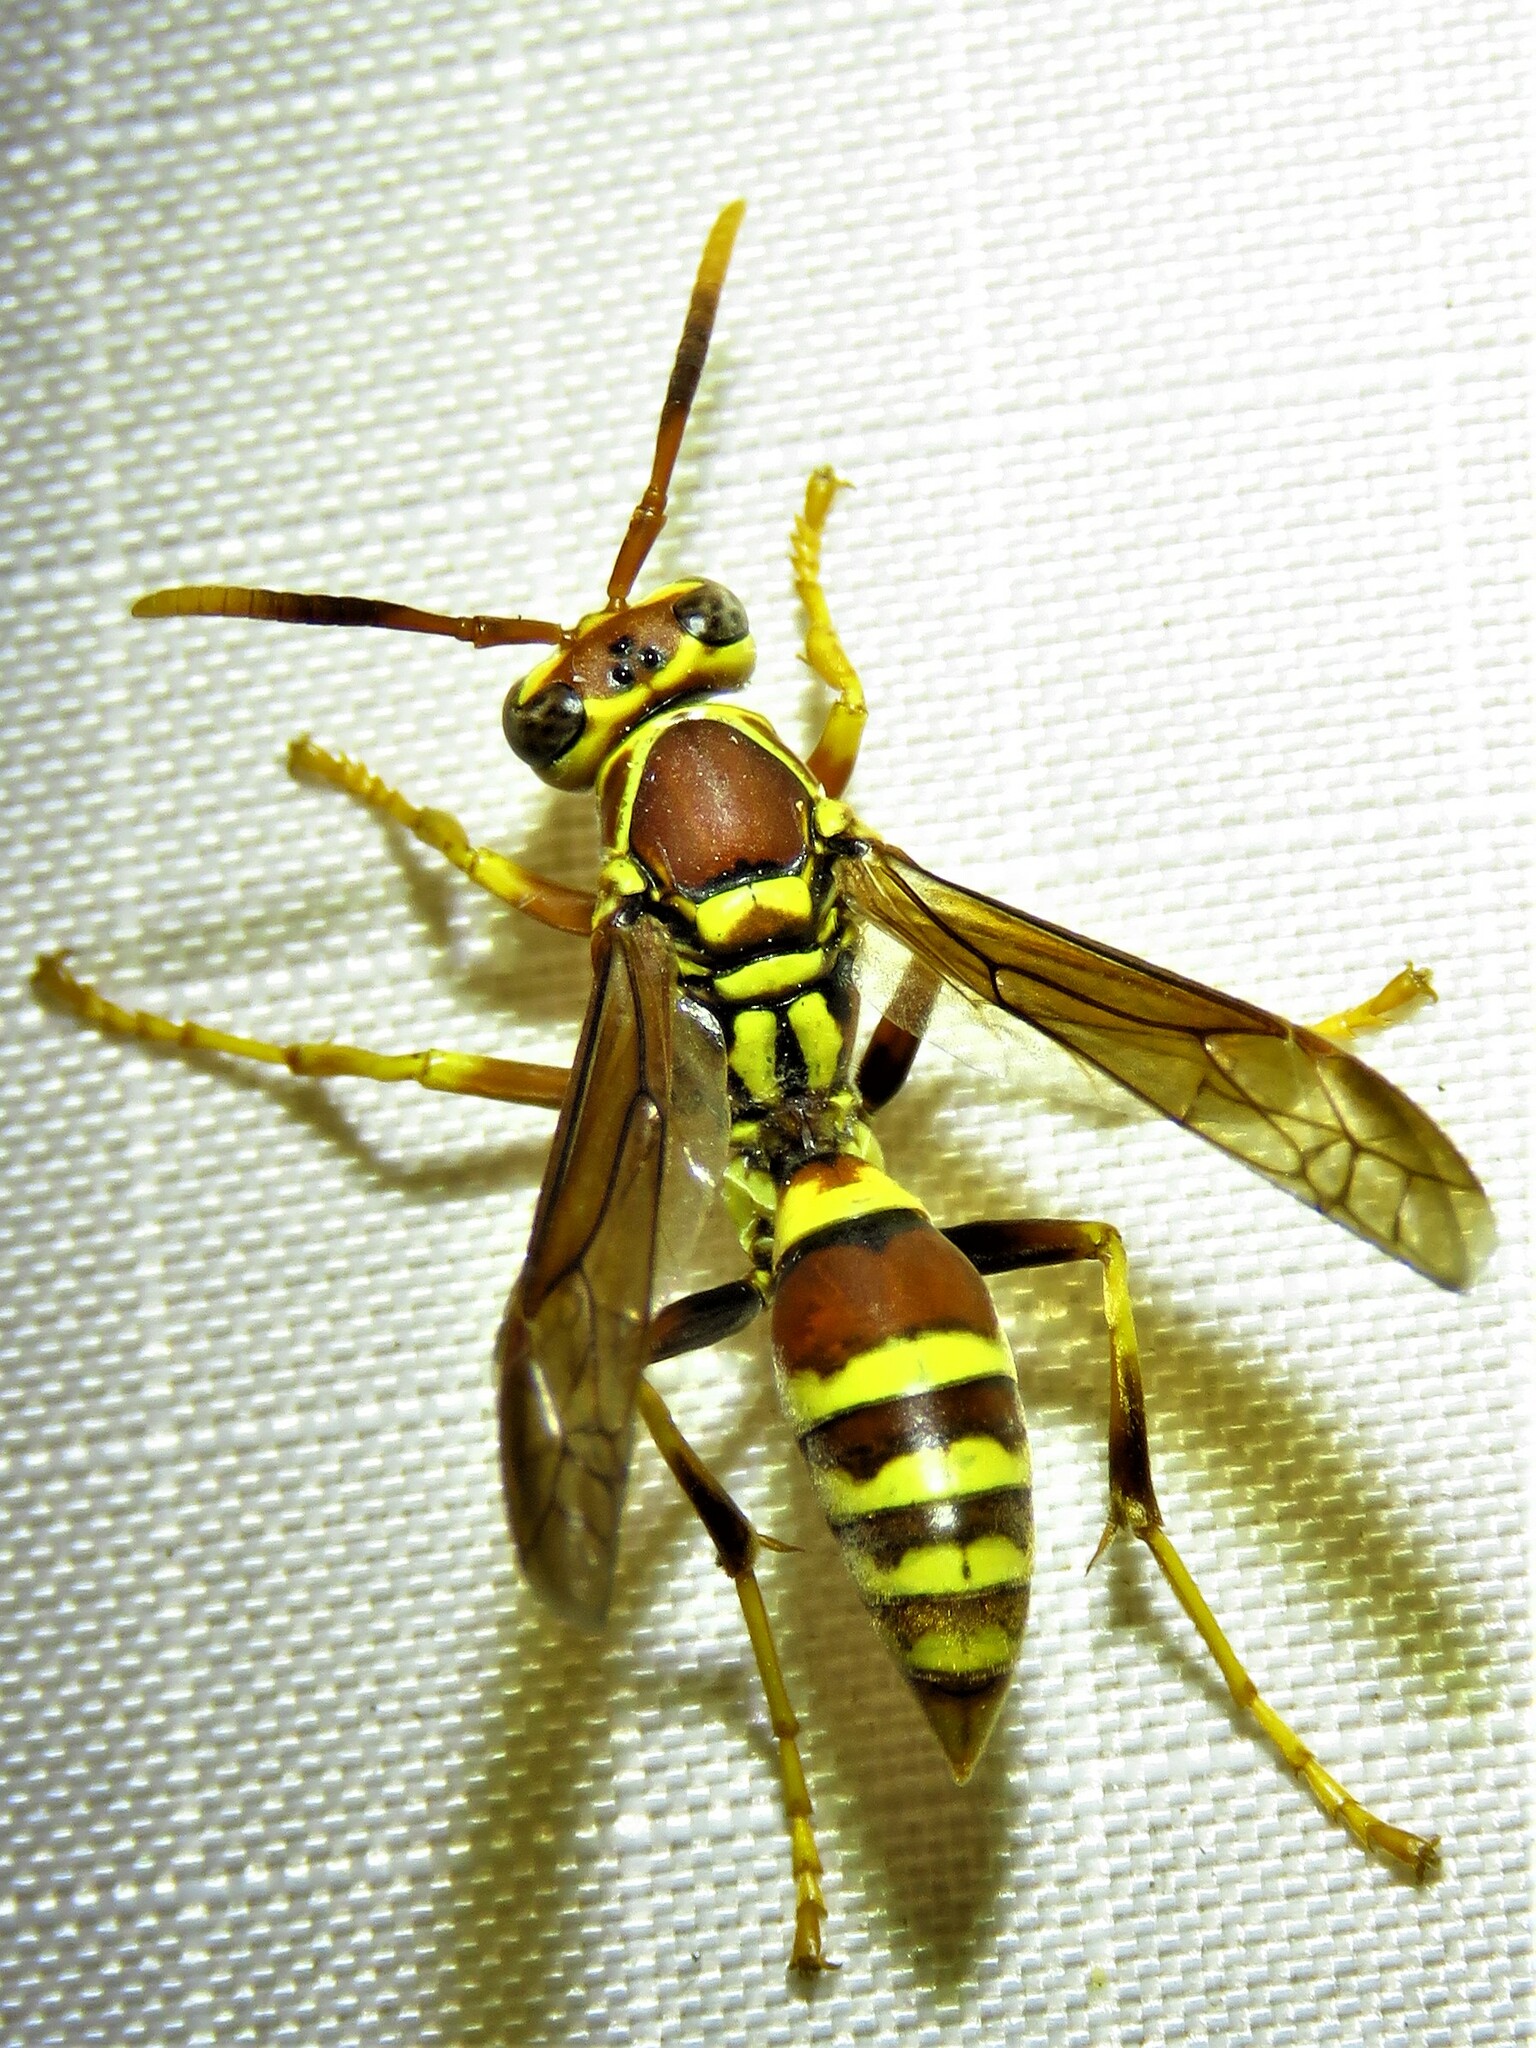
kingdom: Animalia
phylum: Arthropoda
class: Insecta
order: Hymenoptera
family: Eumenidae
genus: Polistes
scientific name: Polistes exclamans
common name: Paper wasp
